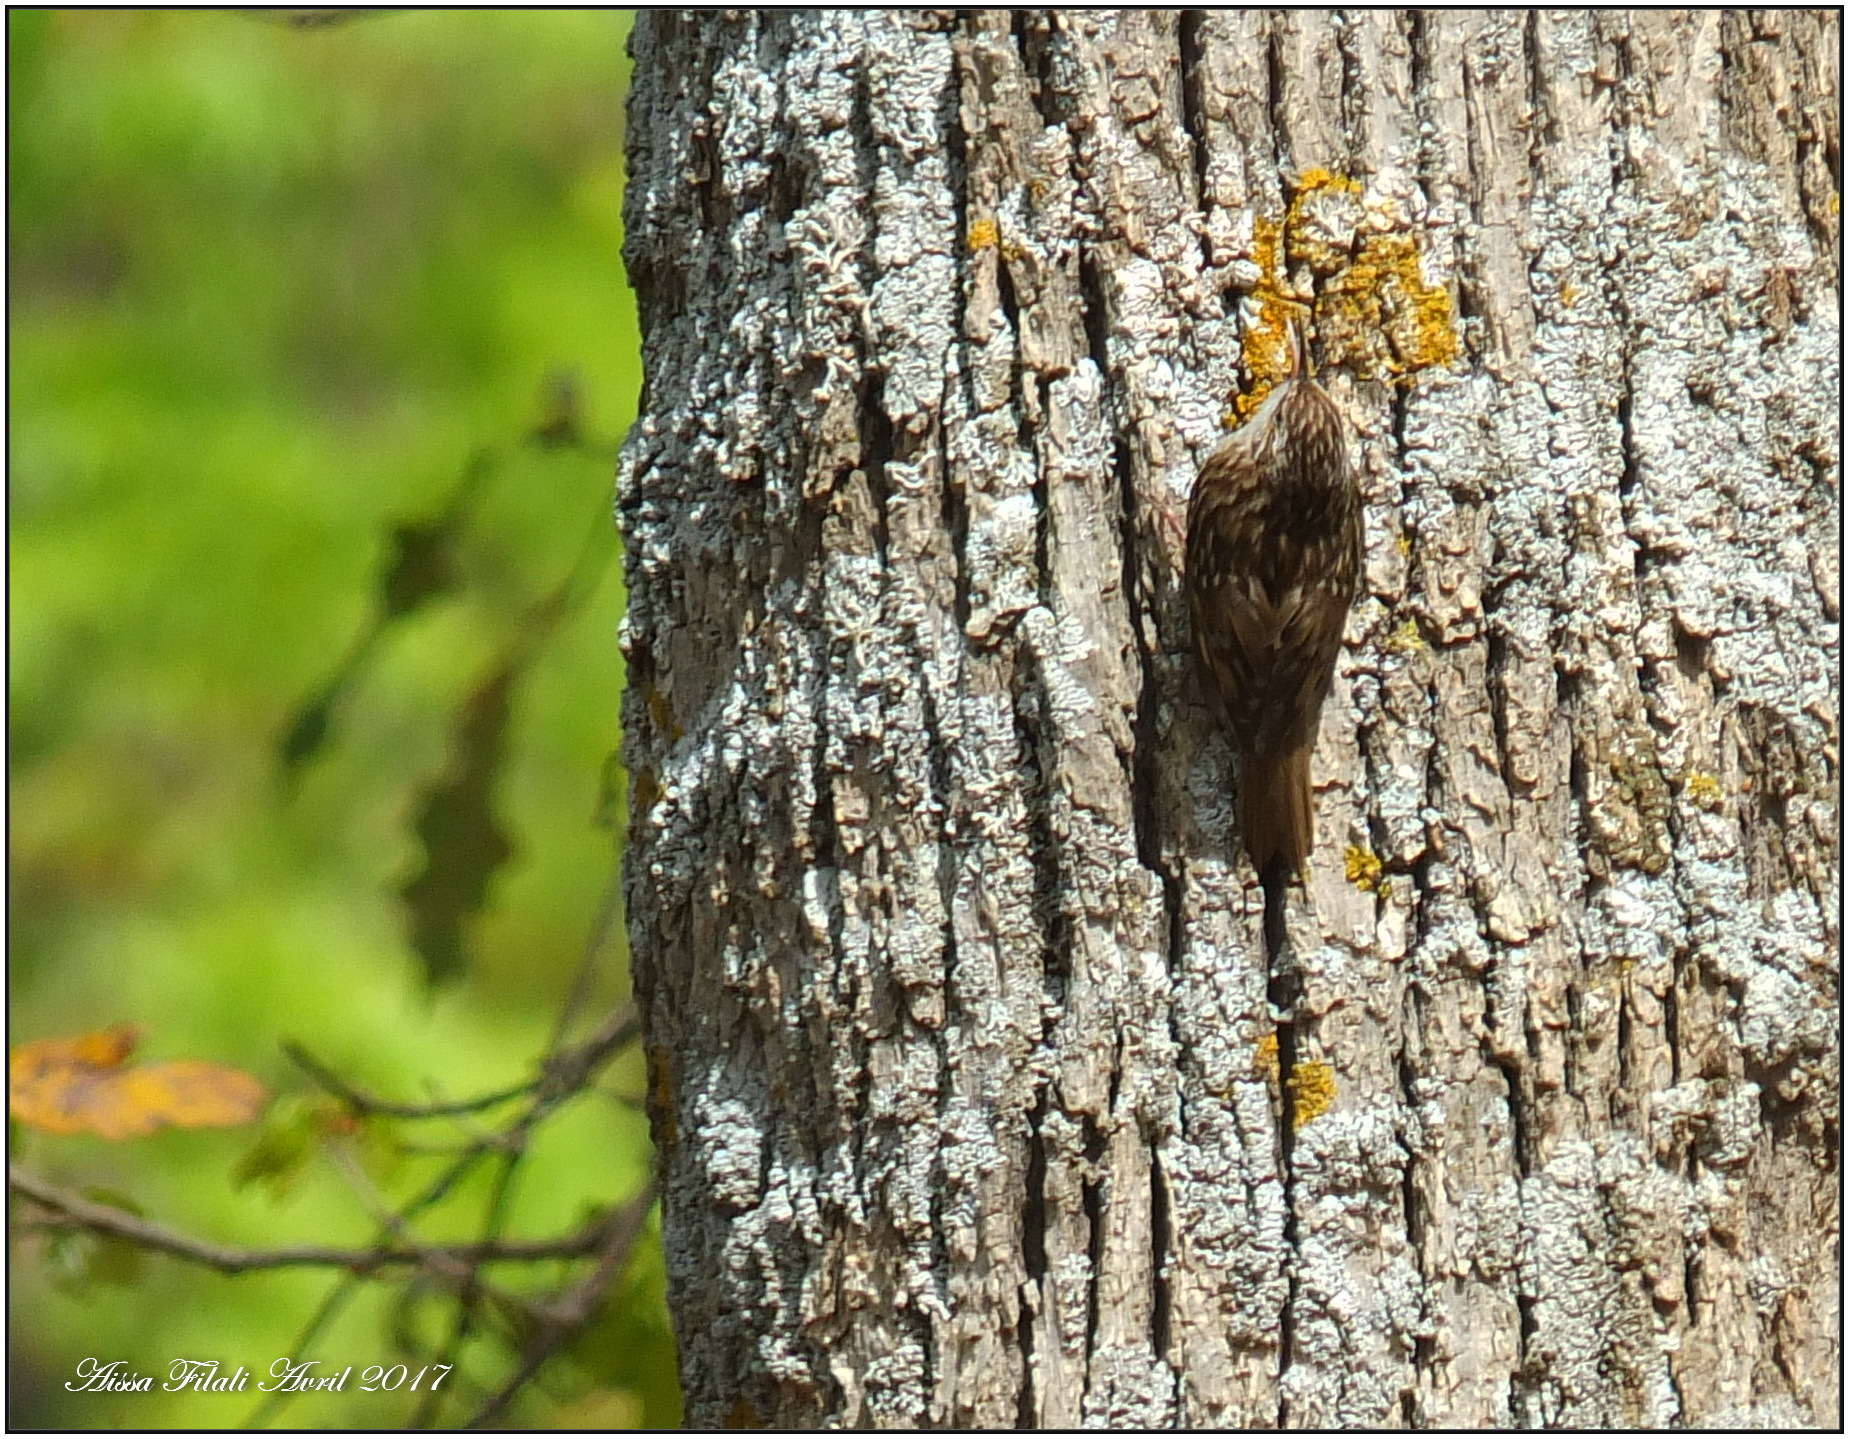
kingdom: Animalia
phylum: Chordata
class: Aves
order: Passeriformes
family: Certhiidae
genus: Certhia
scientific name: Certhia brachydactyla
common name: Short-toed treecreeper
